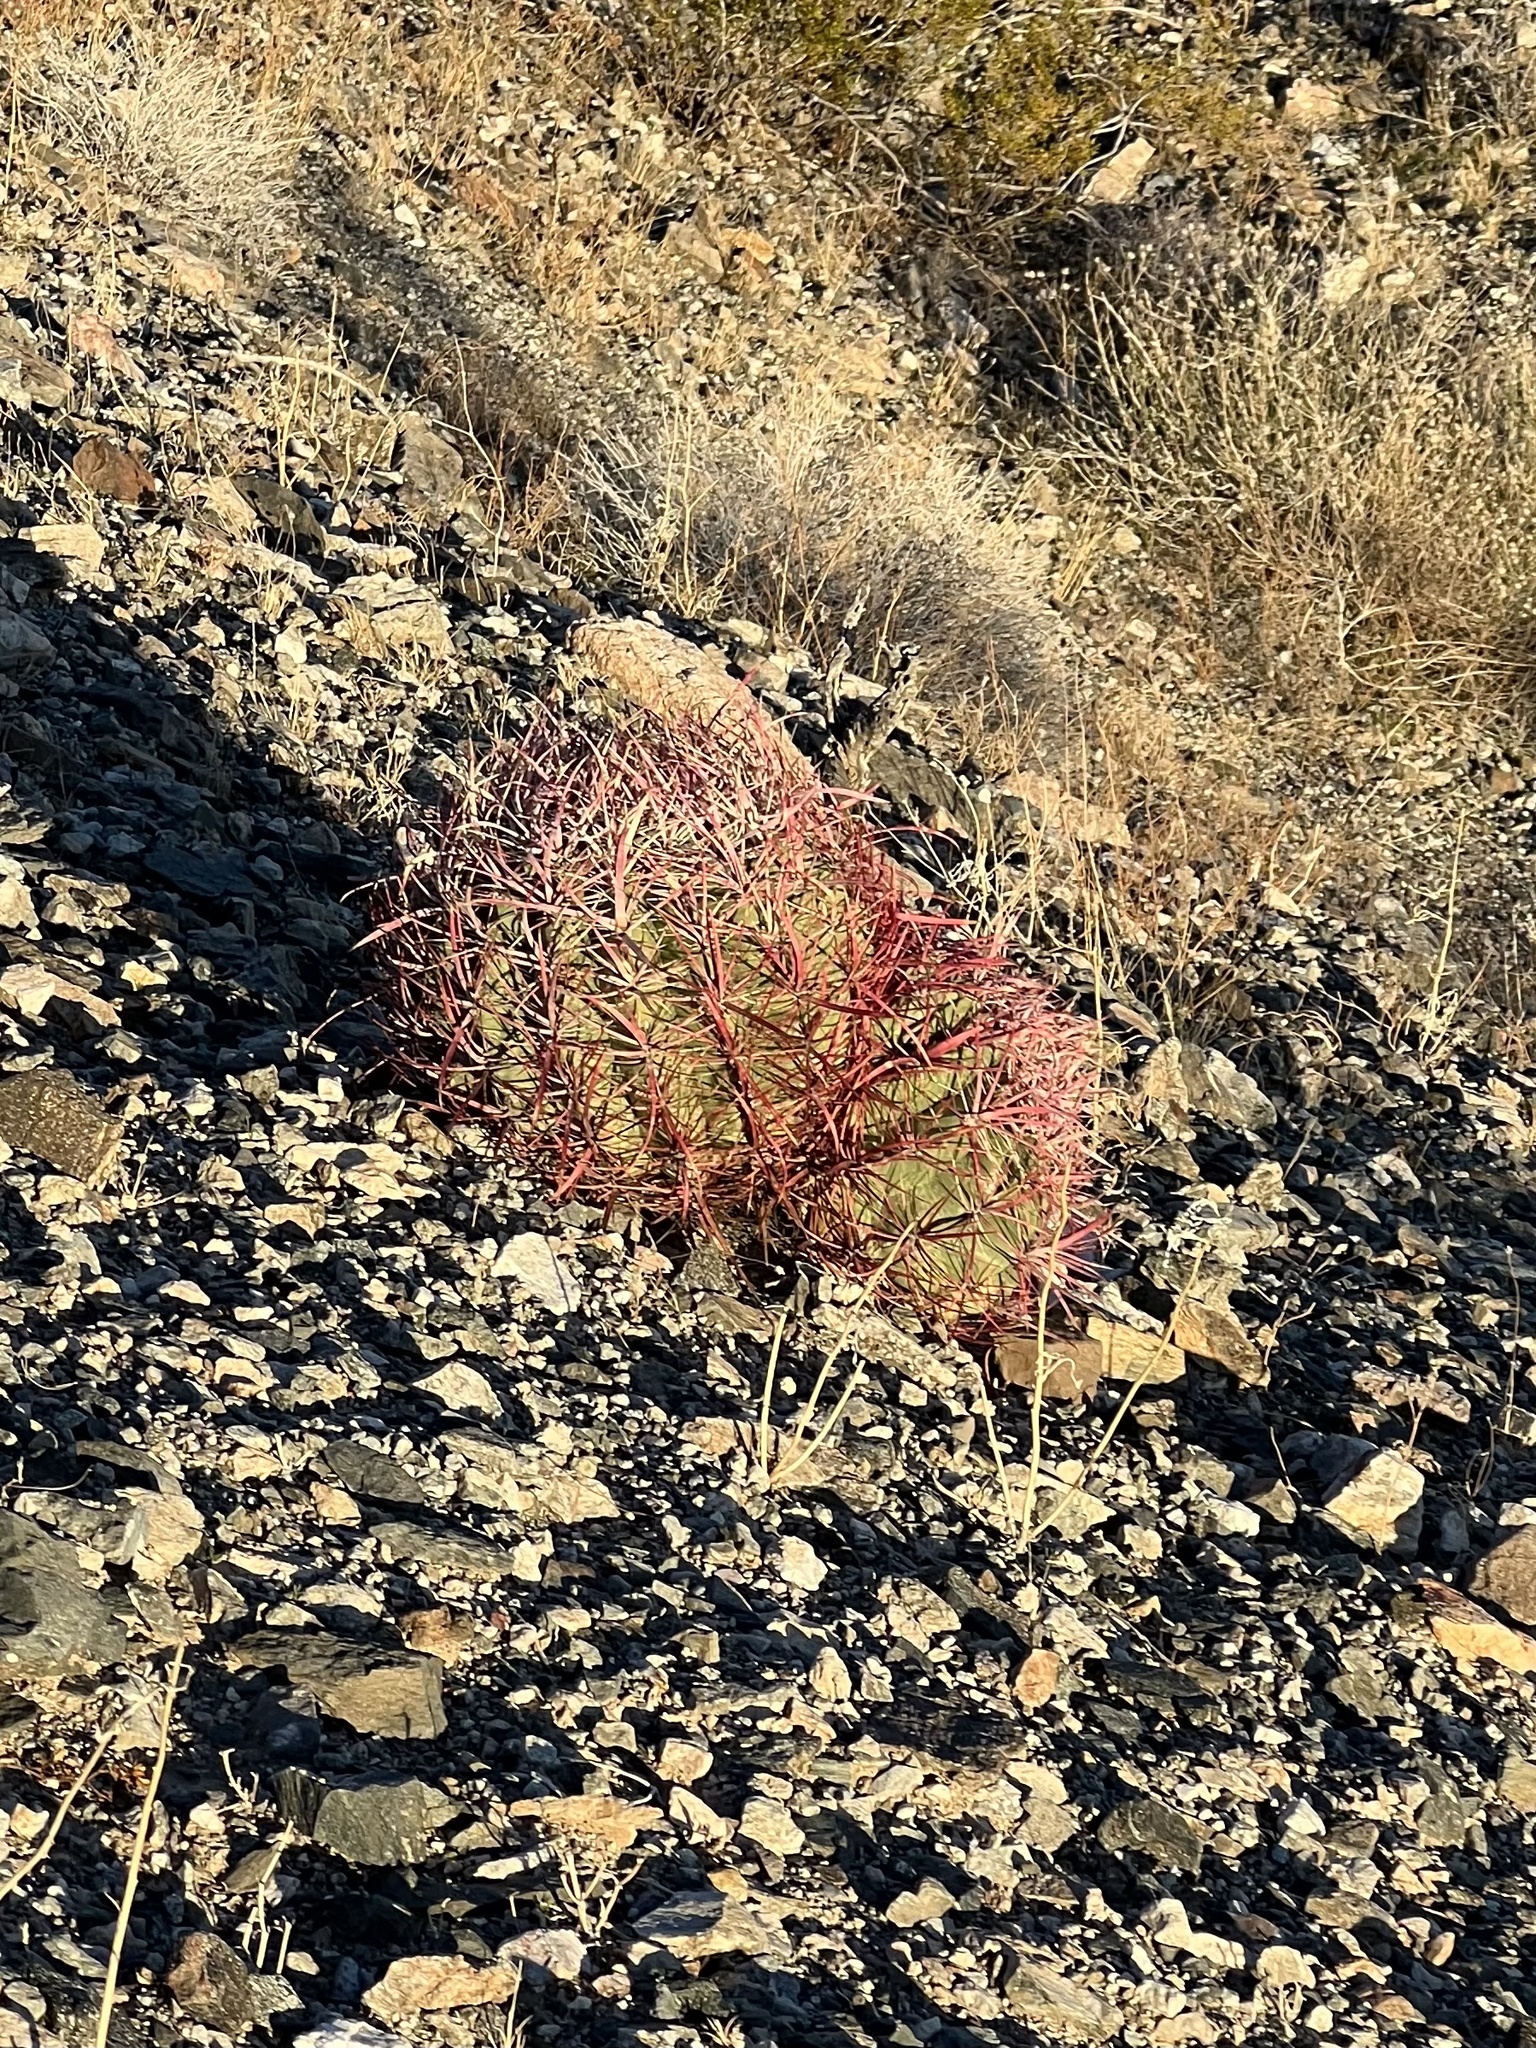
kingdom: Plantae
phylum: Tracheophyta
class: Magnoliopsida
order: Caryophyllales
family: Cactaceae
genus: Ferocactus
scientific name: Ferocactus cylindraceus
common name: California barrel cactus
